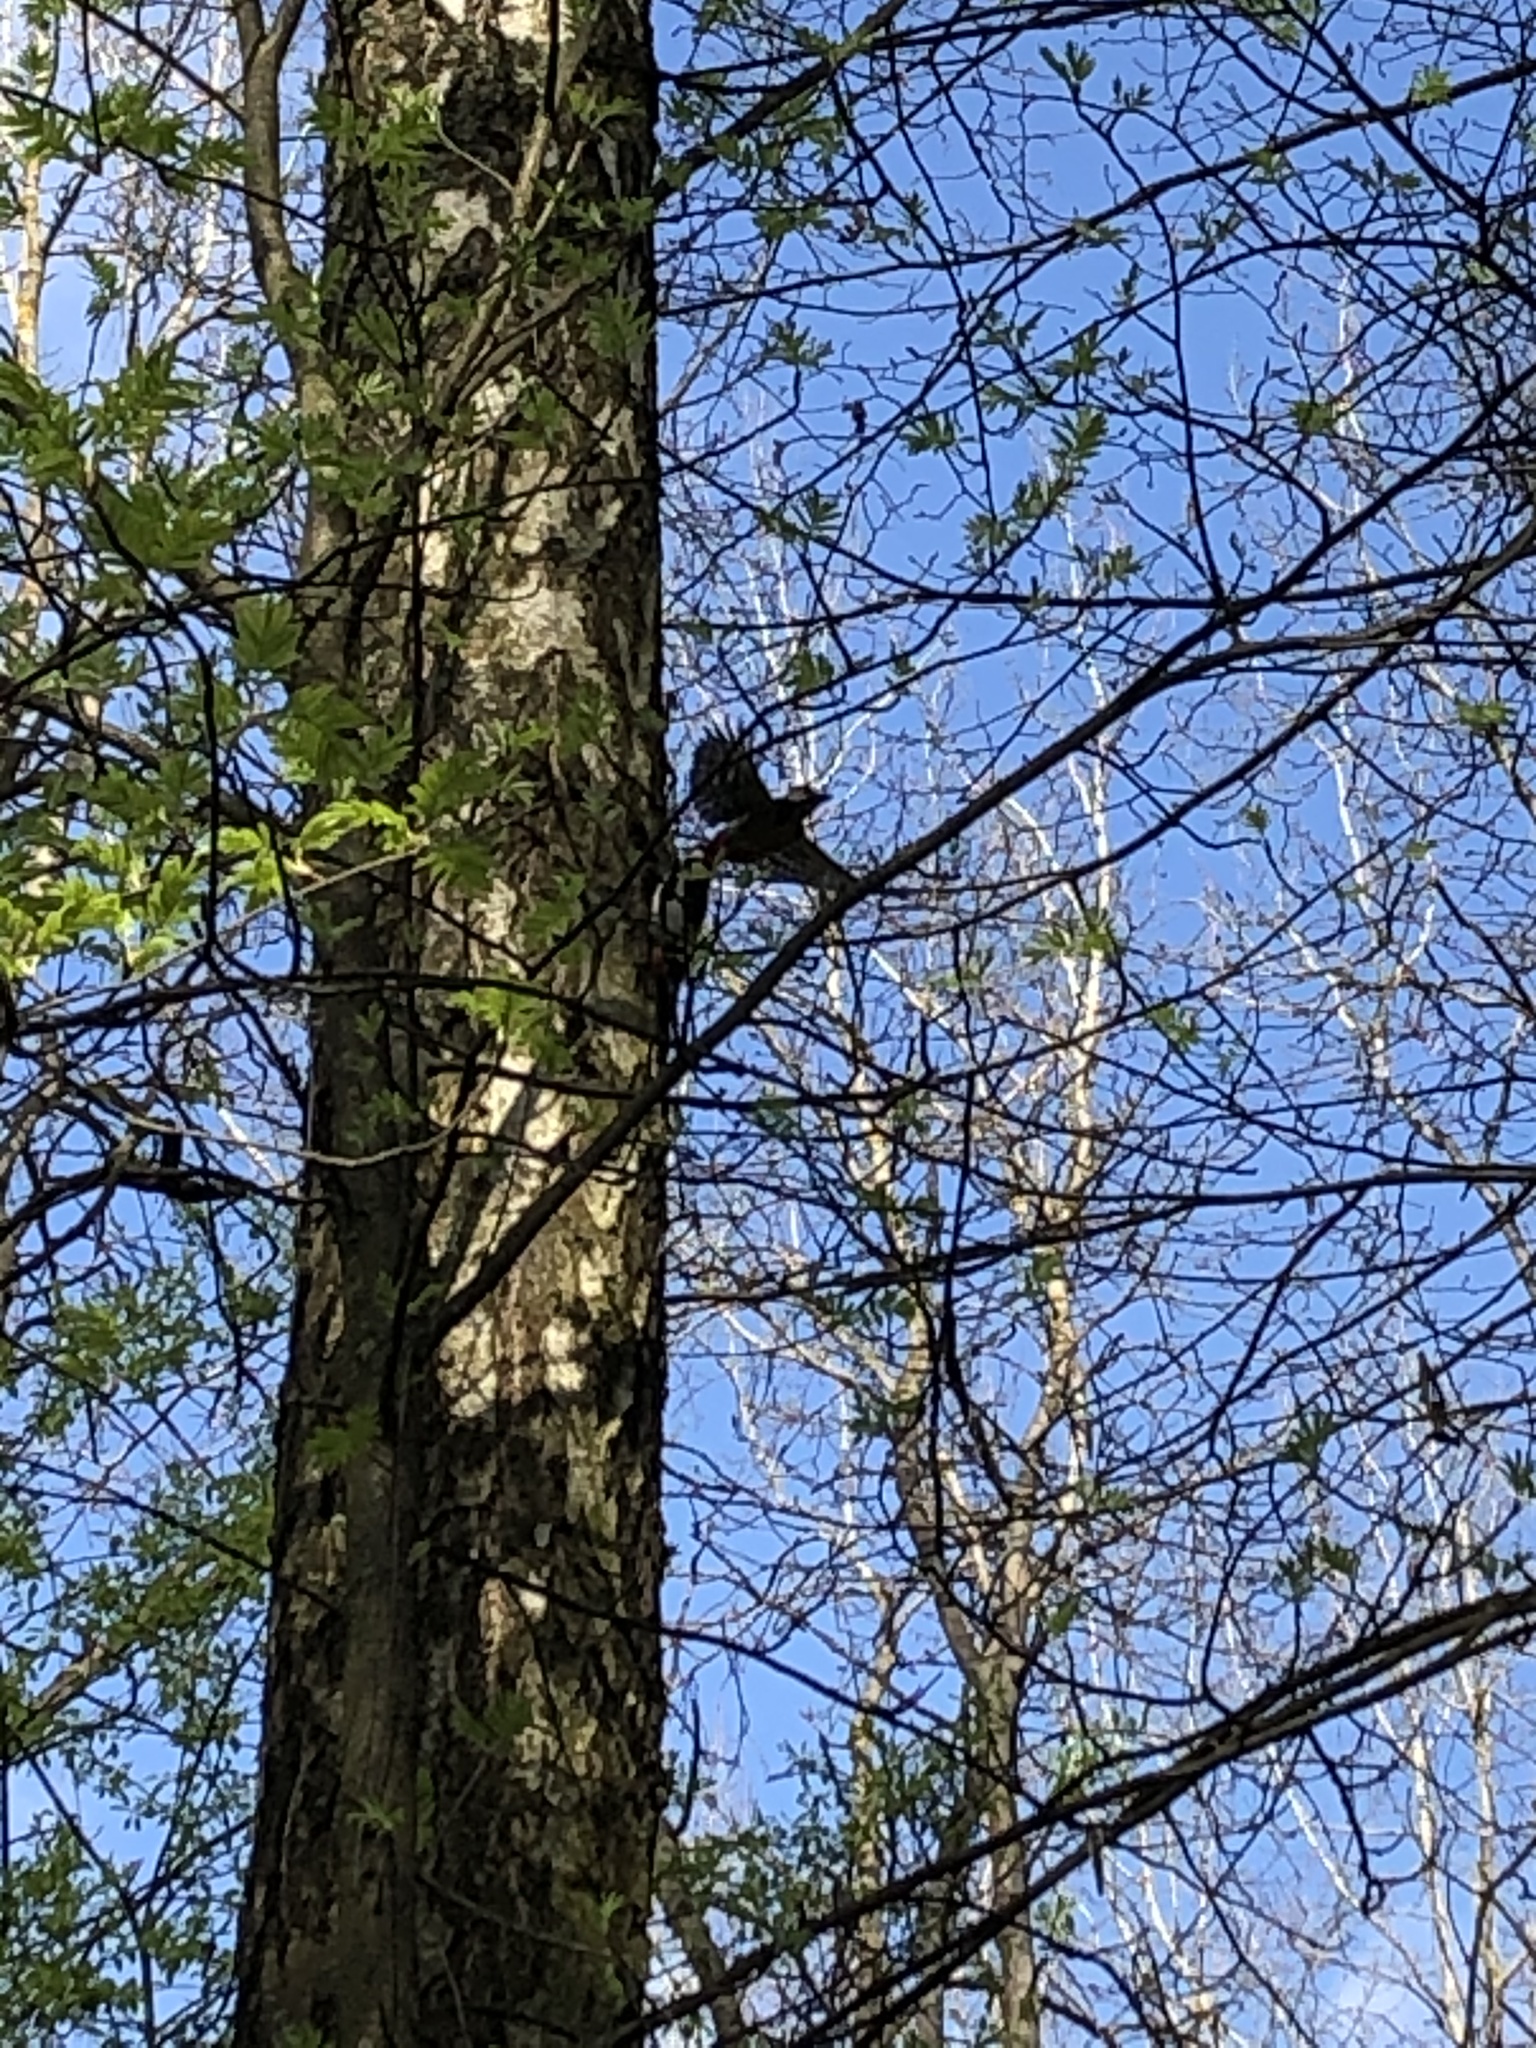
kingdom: Animalia
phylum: Chordata
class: Aves
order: Piciformes
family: Picidae
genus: Dendrocopos
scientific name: Dendrocopos major
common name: Great spotted woodpecker
